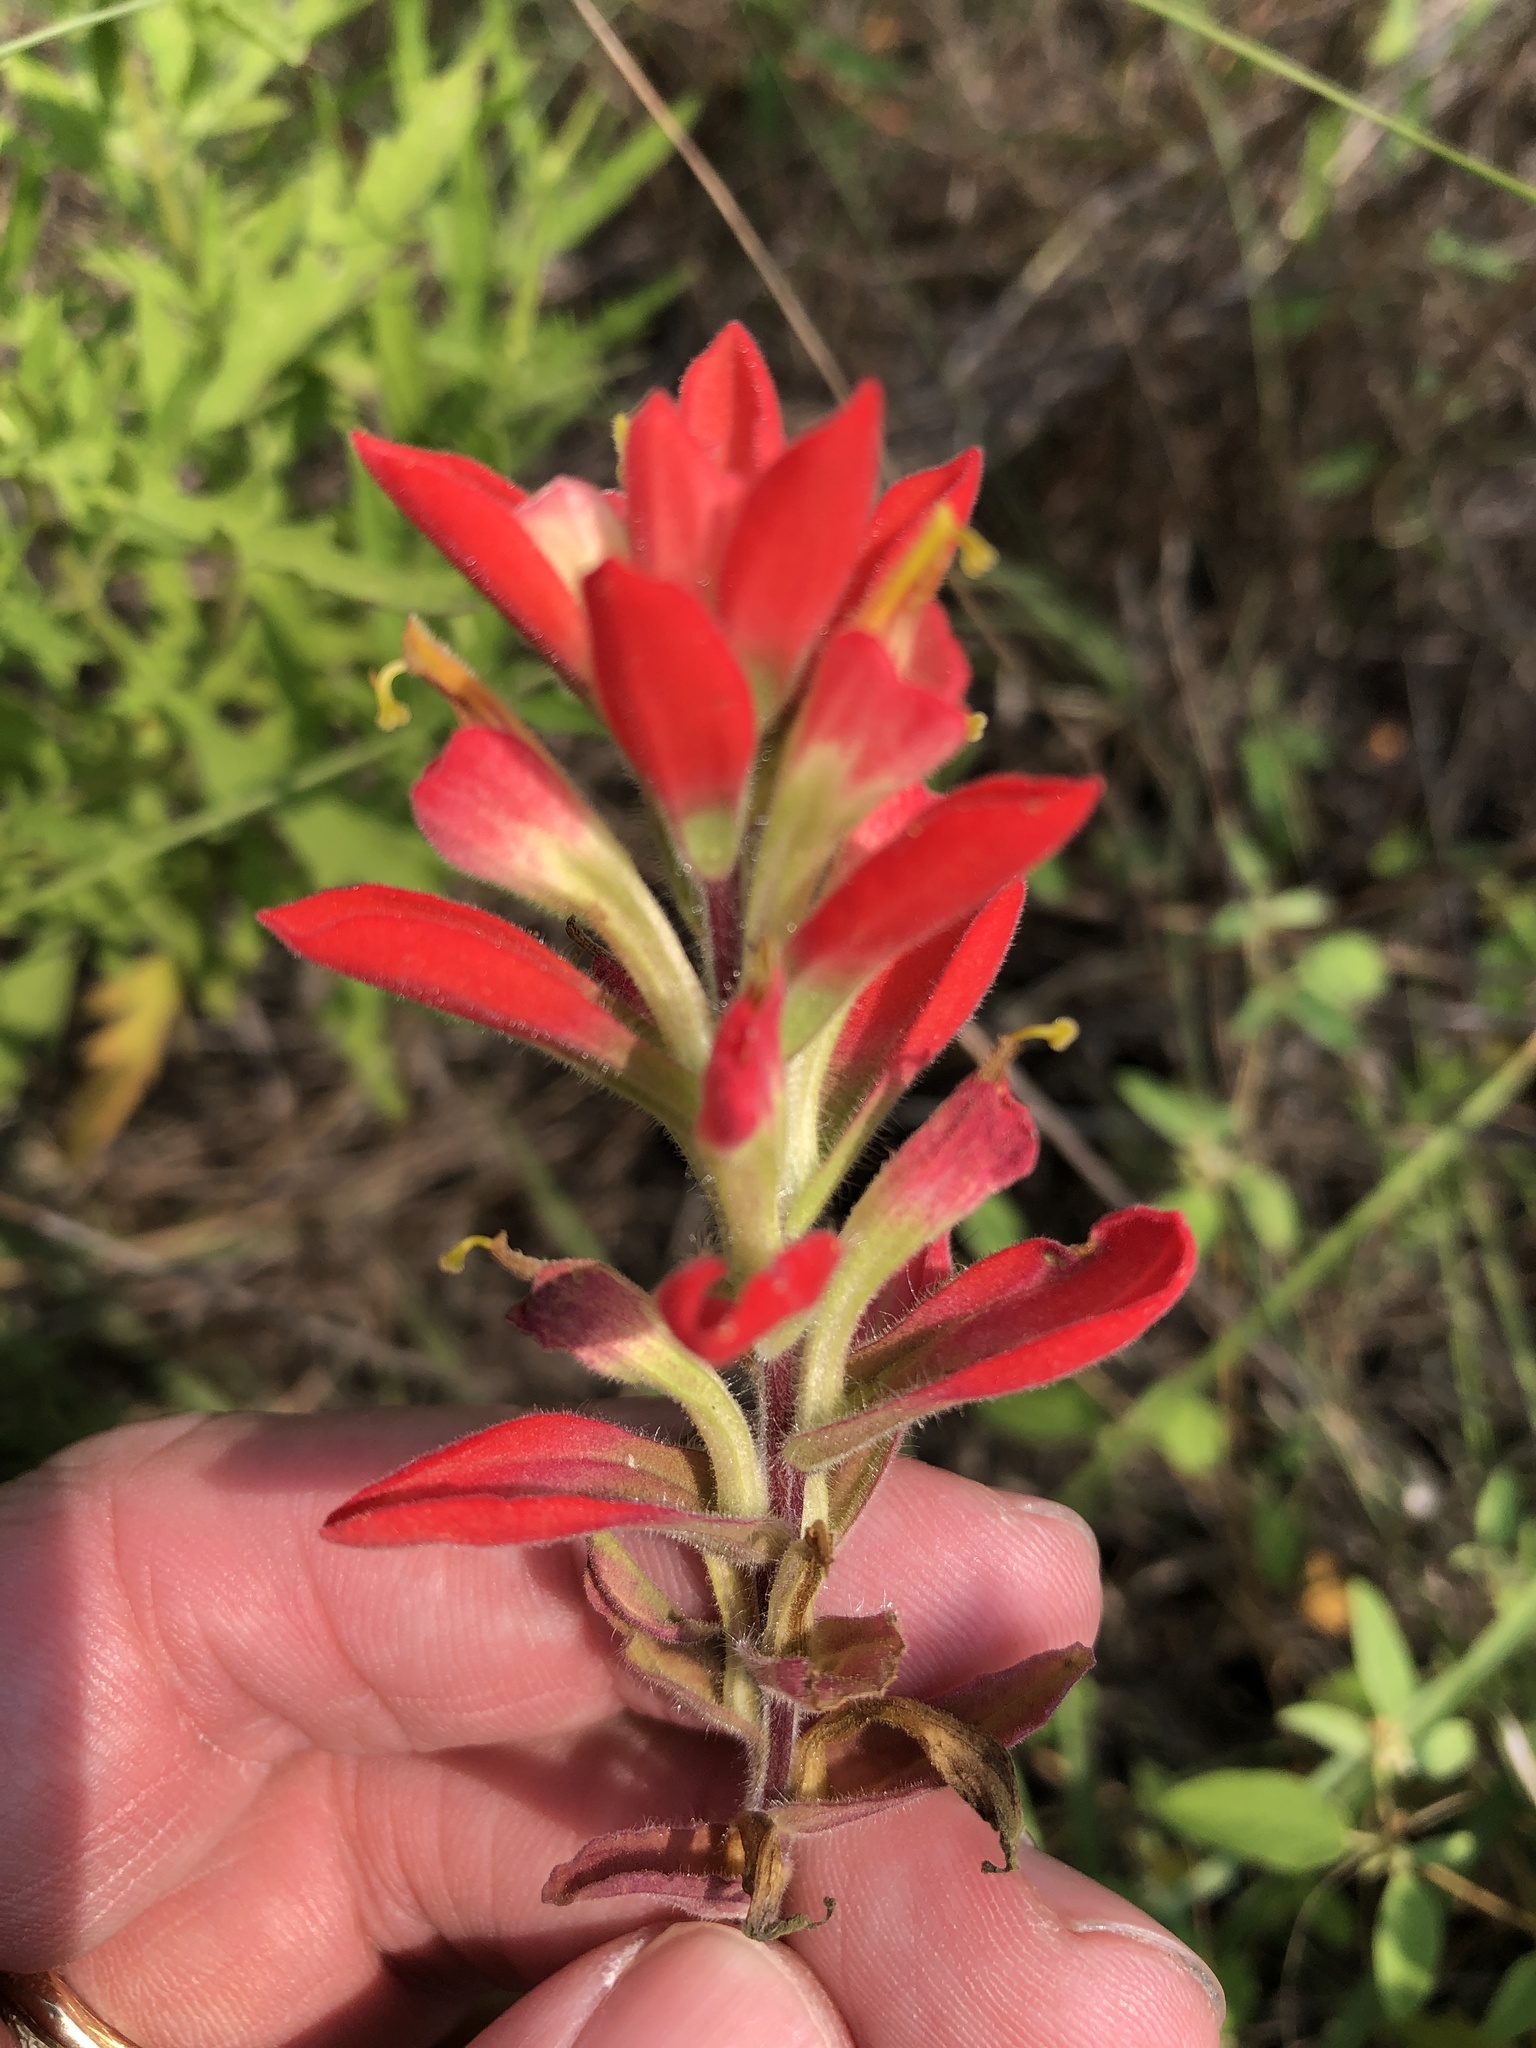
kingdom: Plantae
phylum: Tracheophyta
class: Magnoliopsida
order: Lamiales
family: Orobanchaceae
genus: Castilleja
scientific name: Castilleja indivisa
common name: Texas paintbrush
